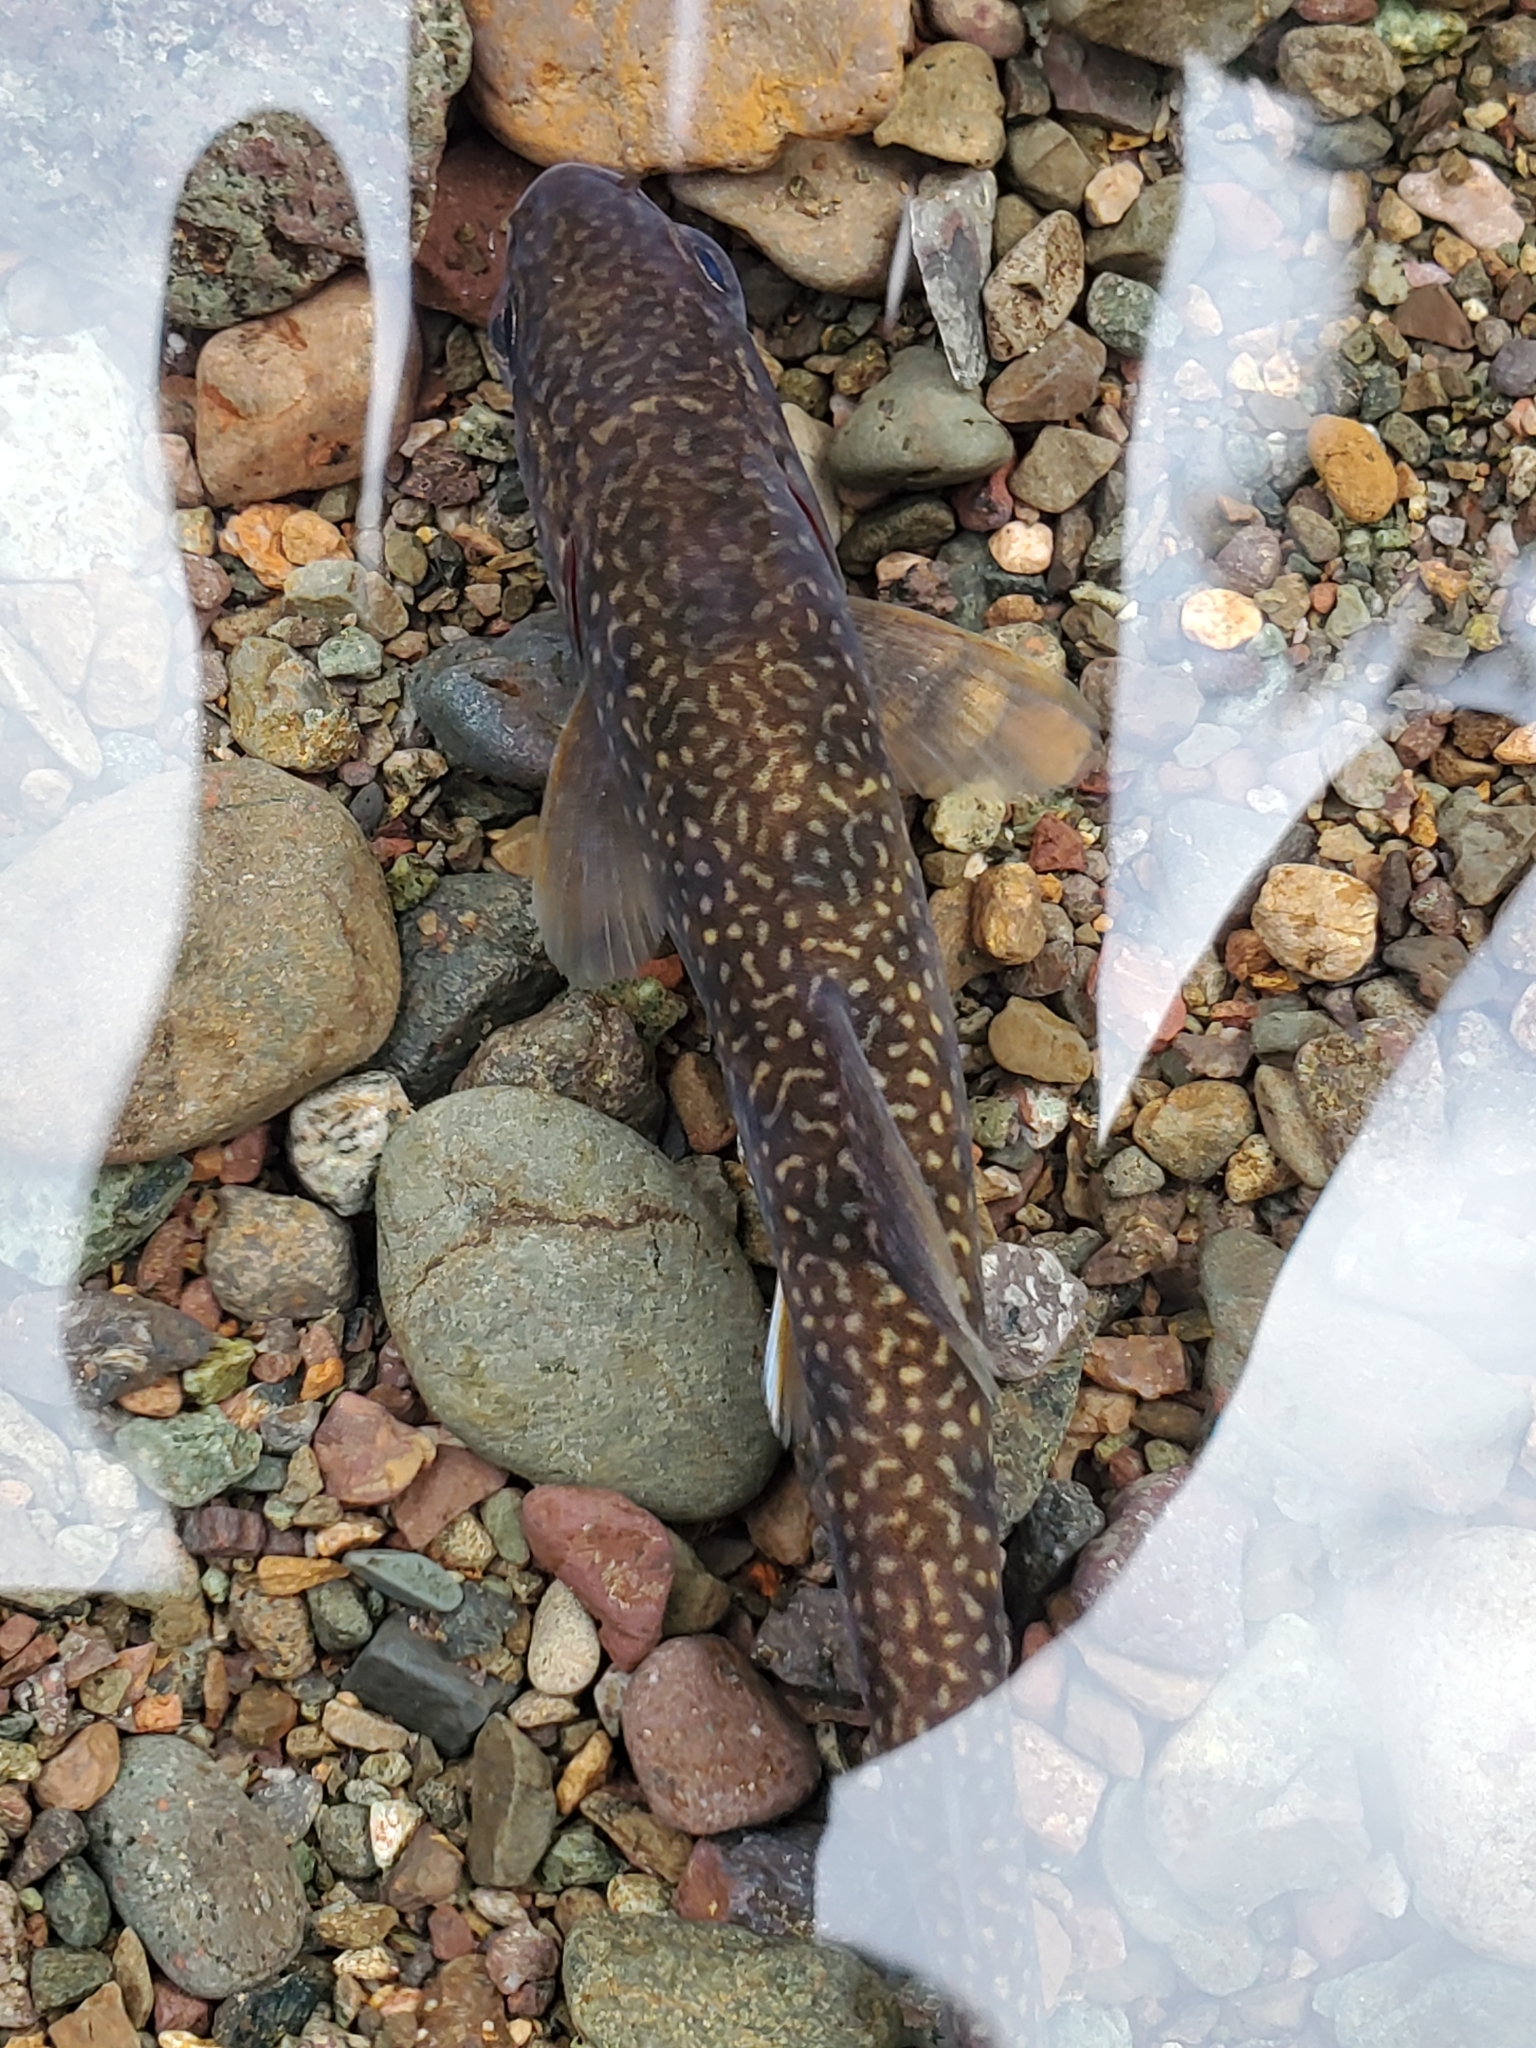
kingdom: Animalia
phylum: Chordata
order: Salmoniformes
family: Salmonidae
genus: Salvelinus
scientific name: Salvelinus malma
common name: Dolly varden charr
